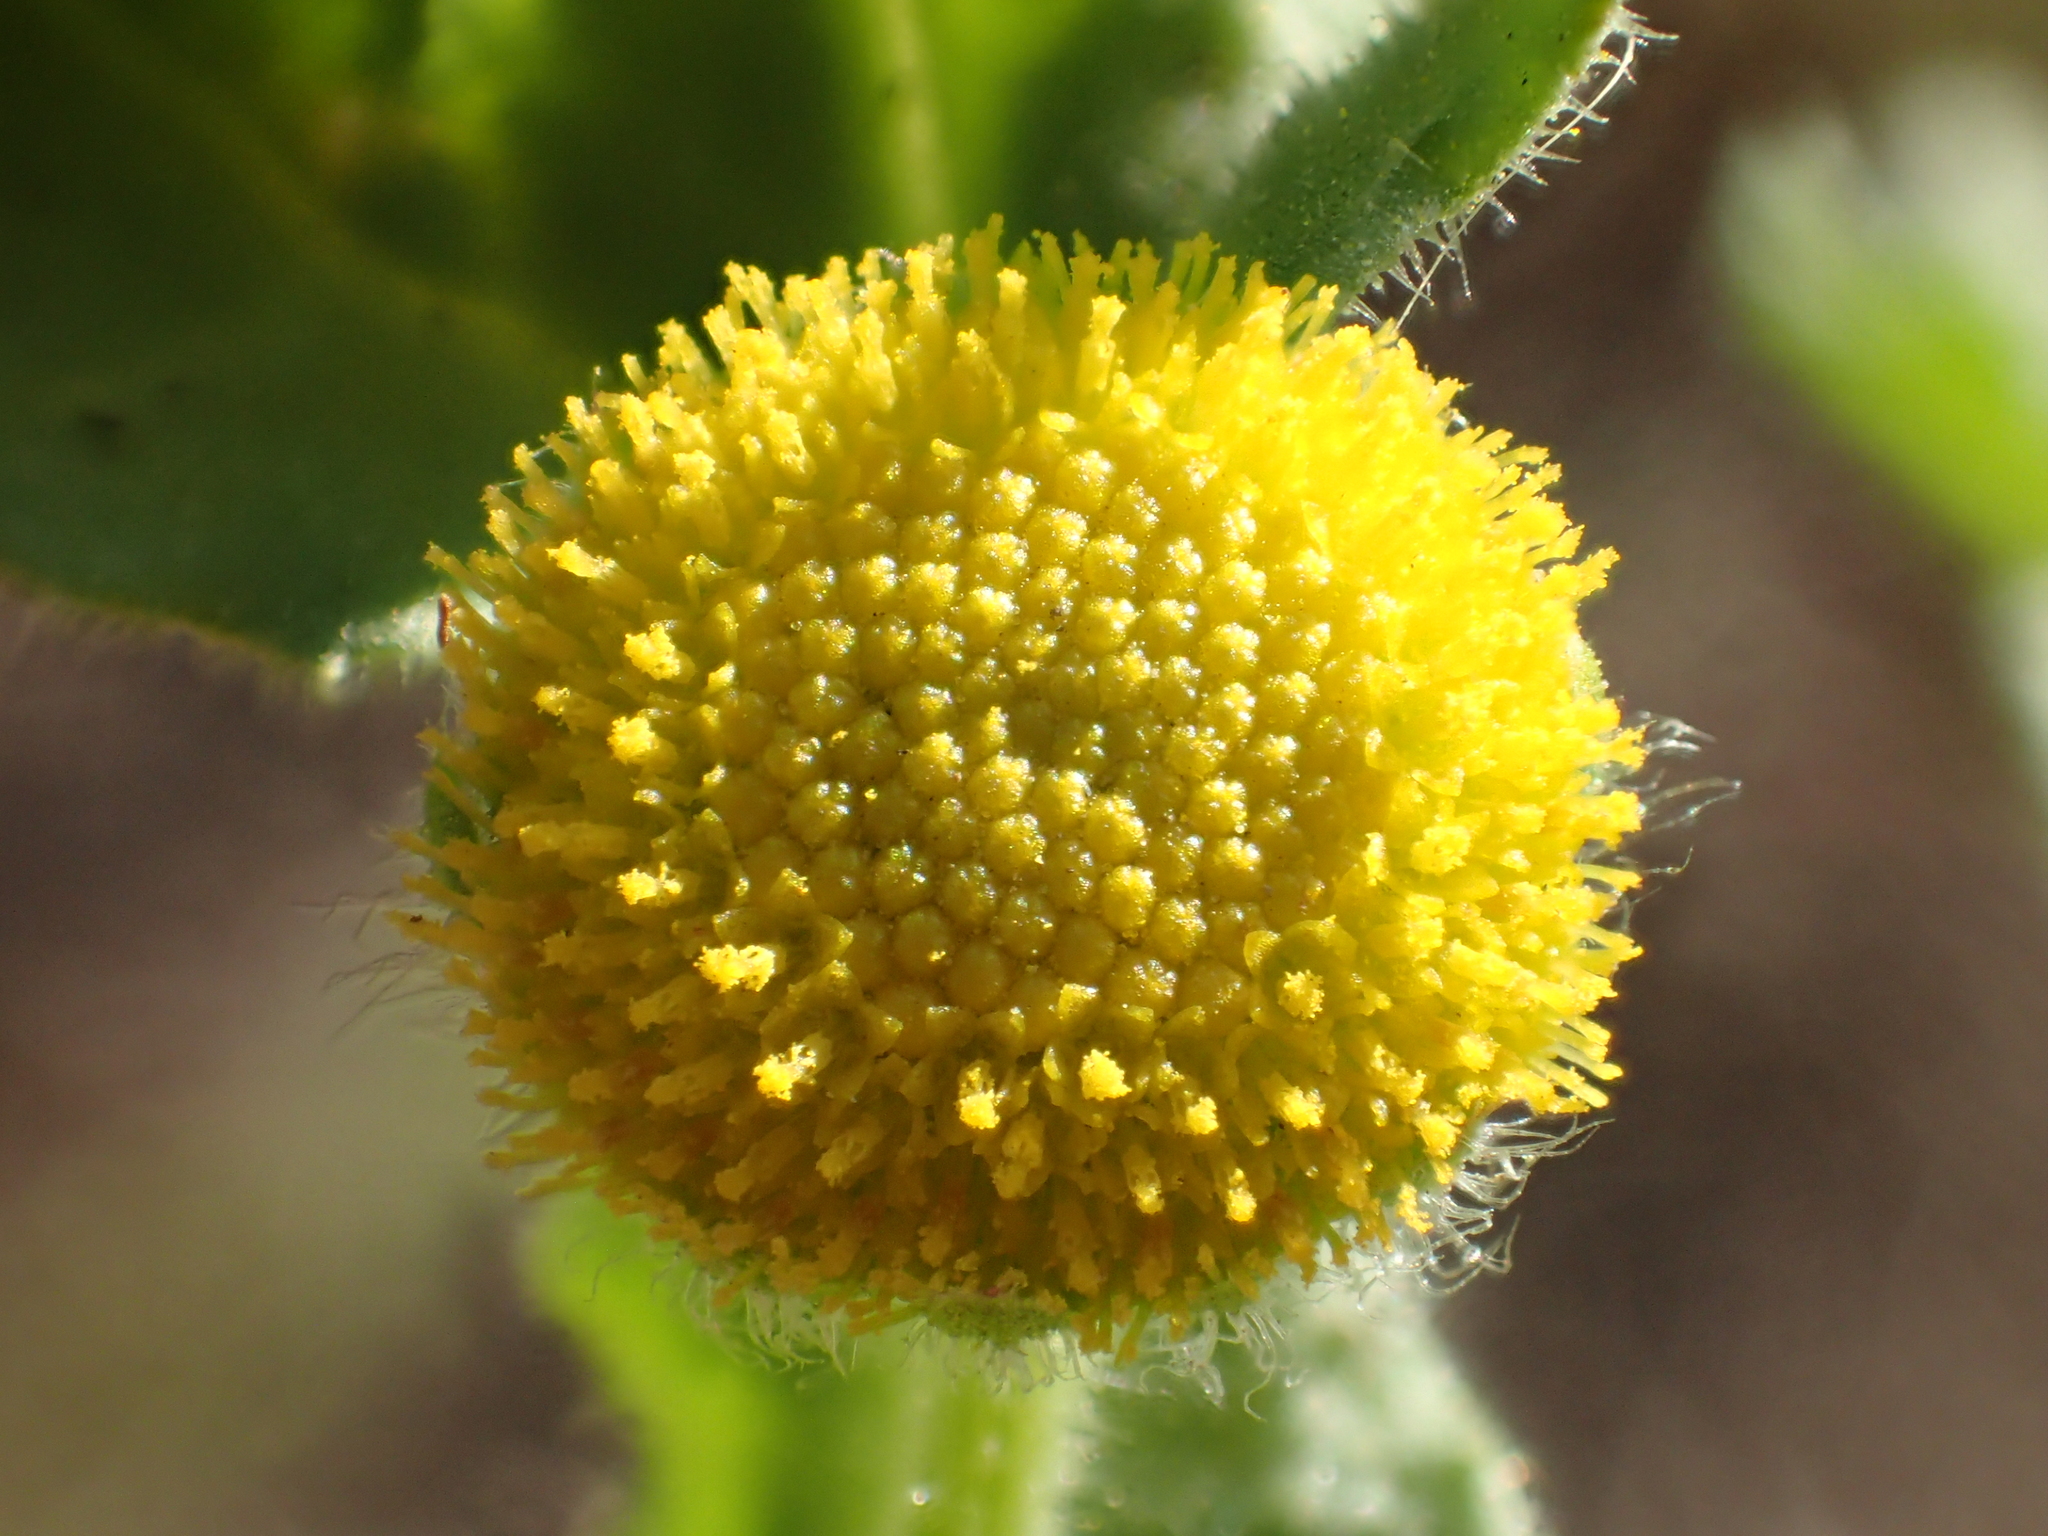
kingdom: Plantae
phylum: Tracheophyta
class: Magnoliopsida
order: Asterales
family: Asteraceae
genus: Grangea
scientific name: Grangea maderaspatana
